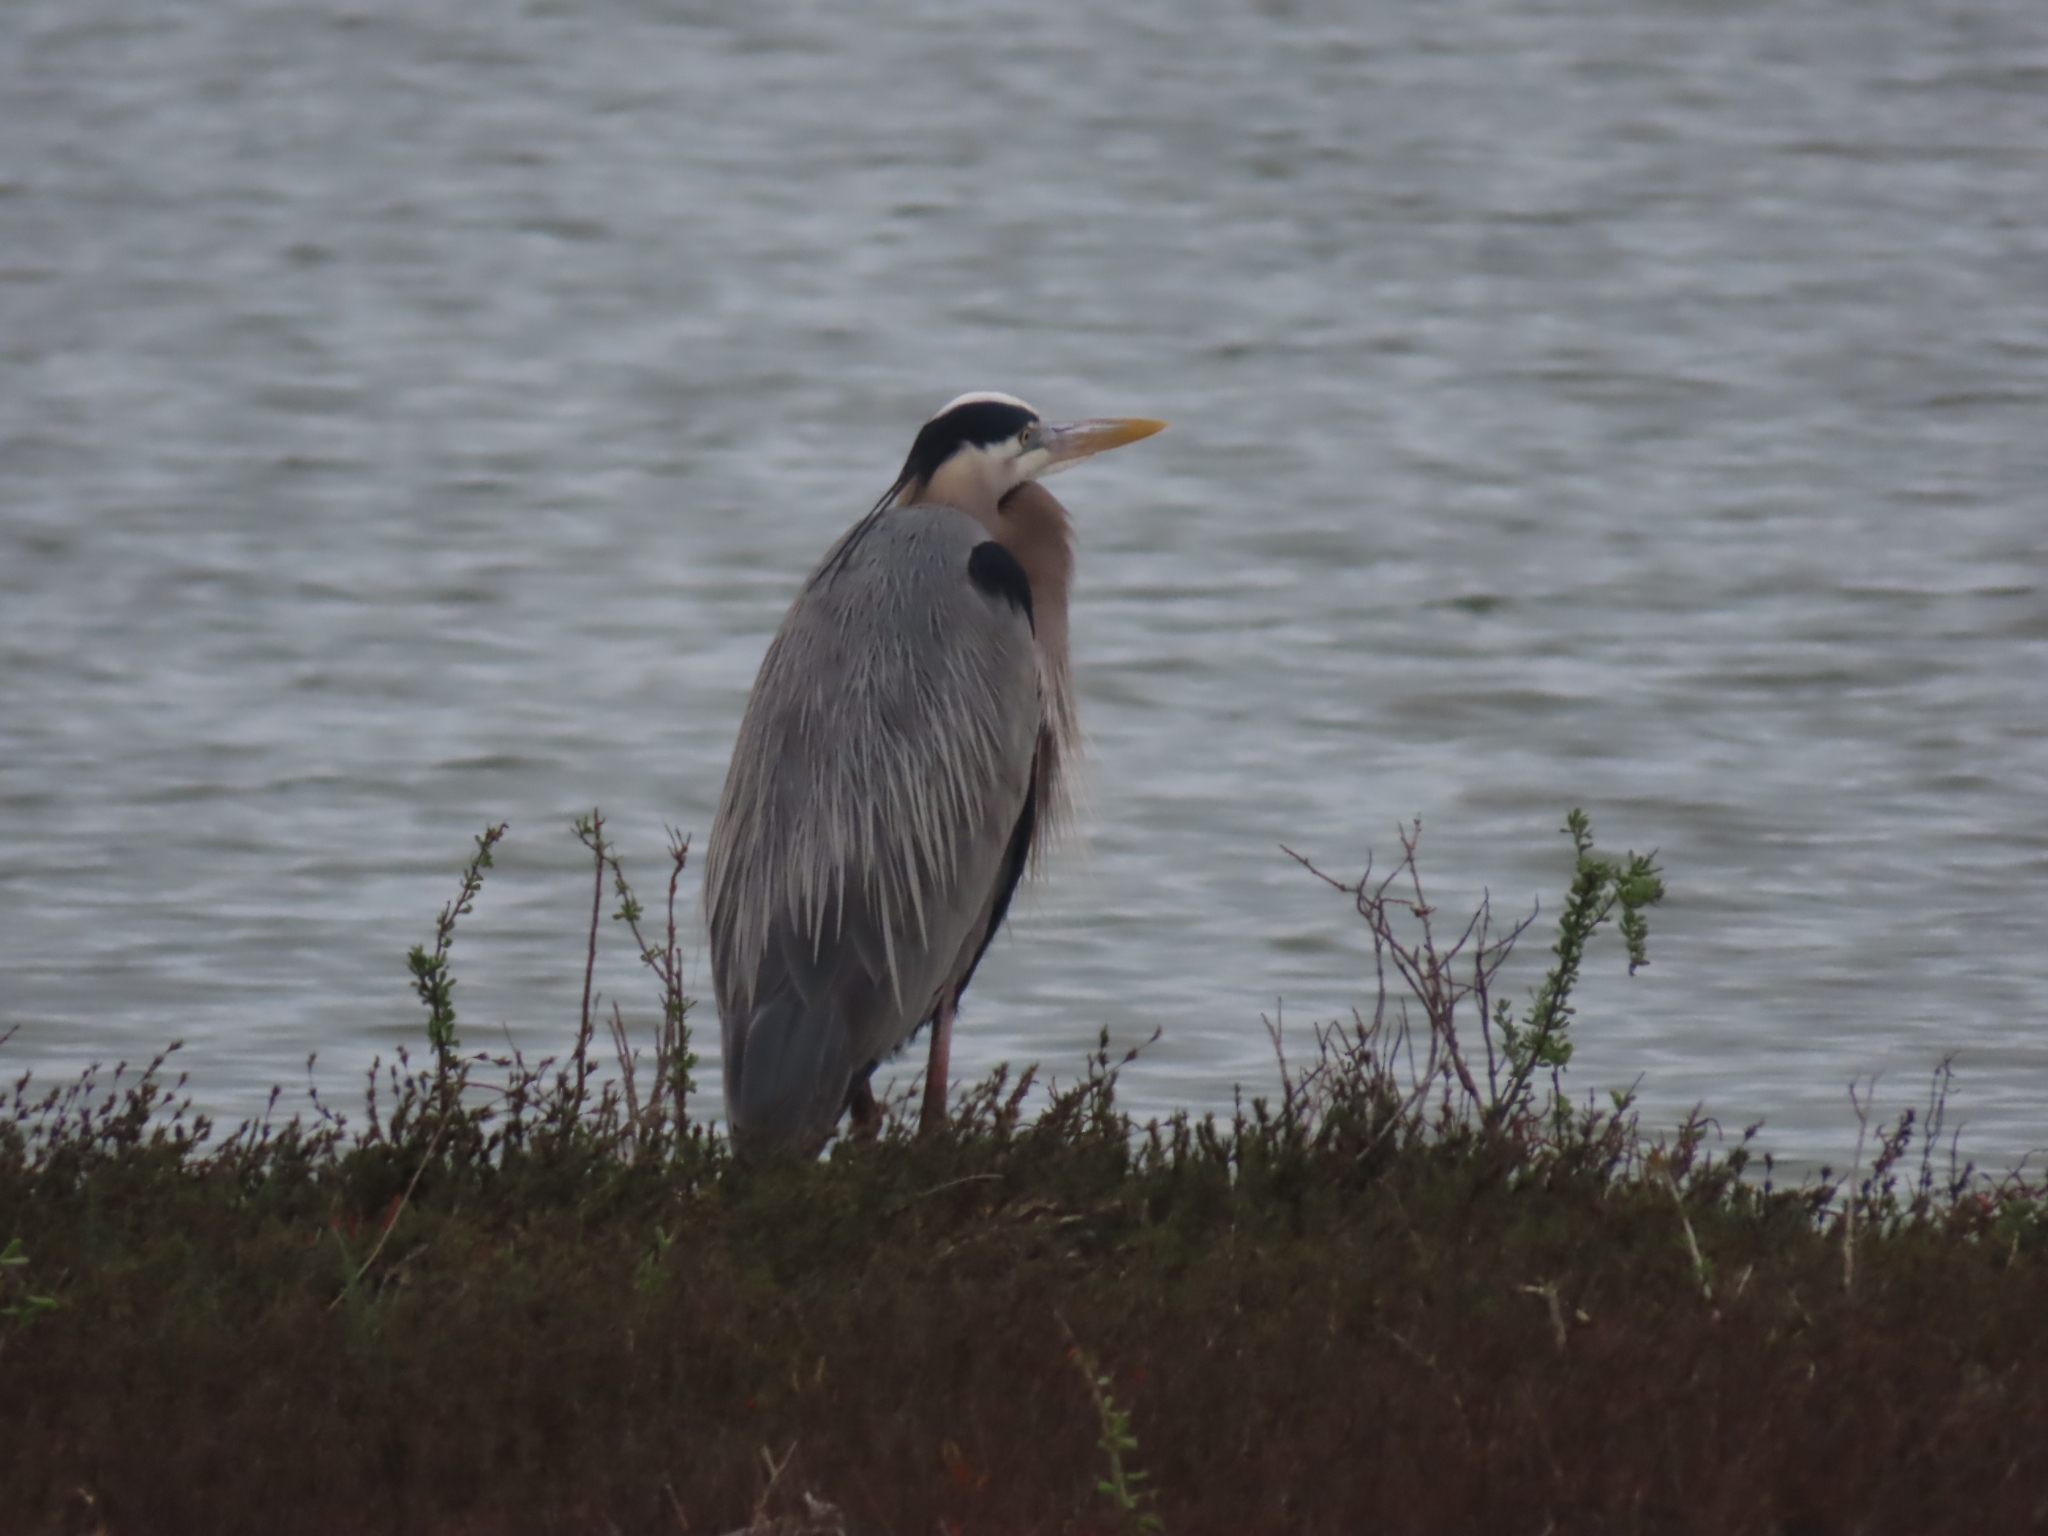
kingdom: Animalia
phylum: Chordata
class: Aves
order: Pelecaniformes
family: Ardeidae
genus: Ardea
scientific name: Ardea herodias
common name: Great blue heron
